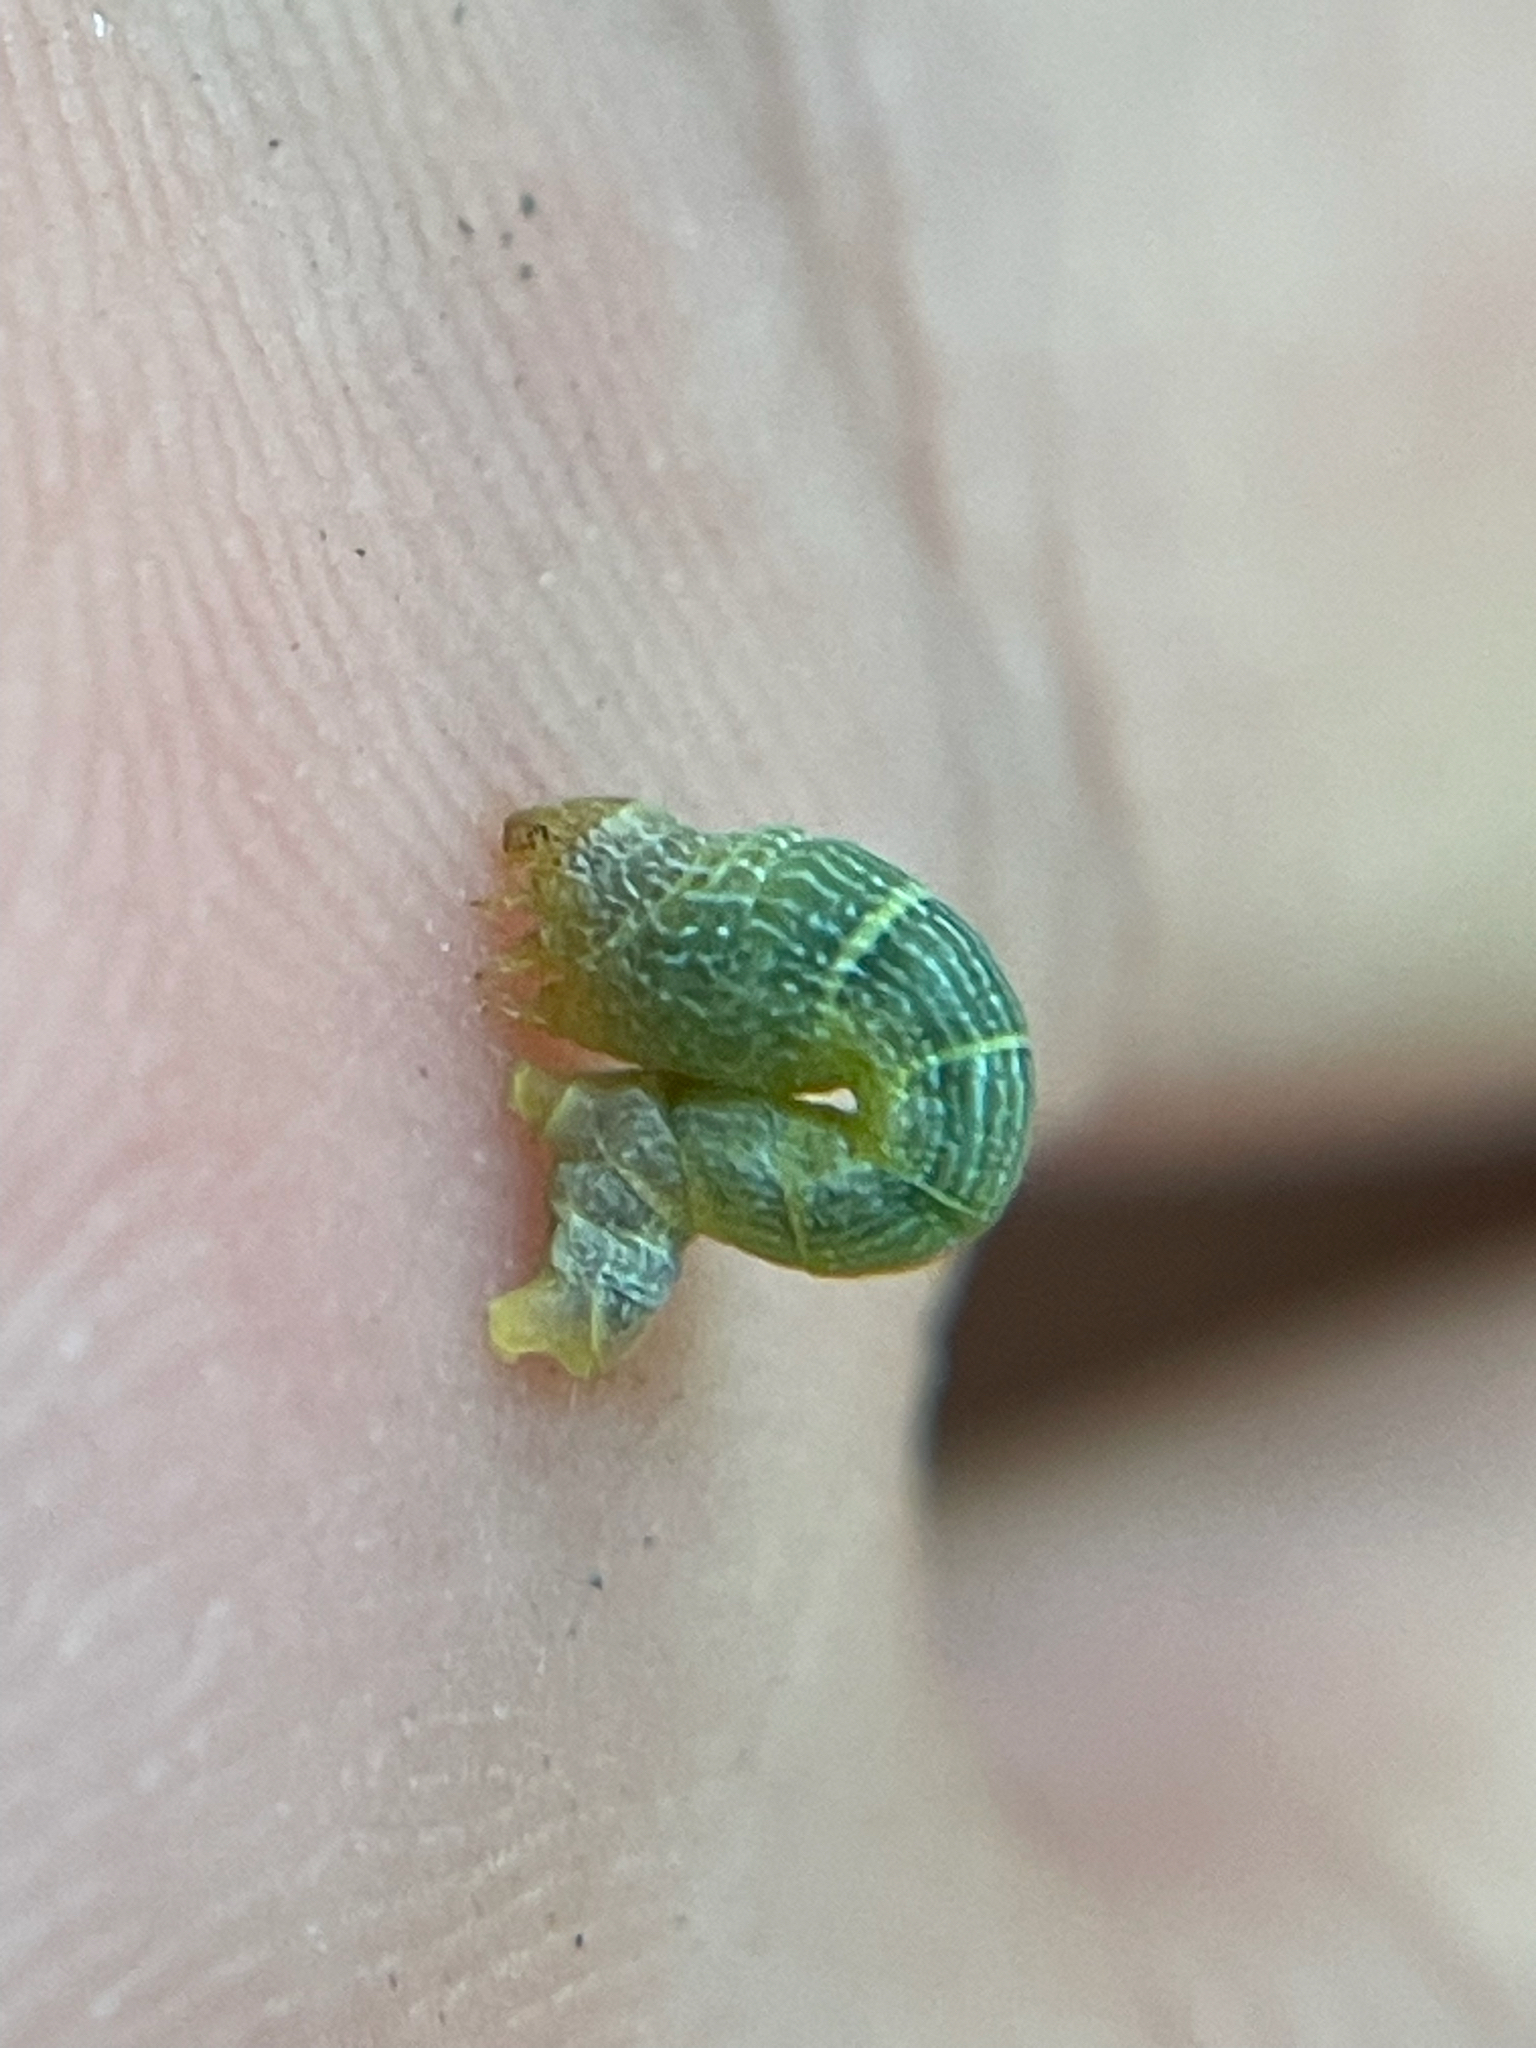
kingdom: Animalia
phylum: Arthropoda
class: Insecta
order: Lepidoptera
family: Geometridae
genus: Epimecis
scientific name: Epimecis hortaria
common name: Tulip-tree beauty
